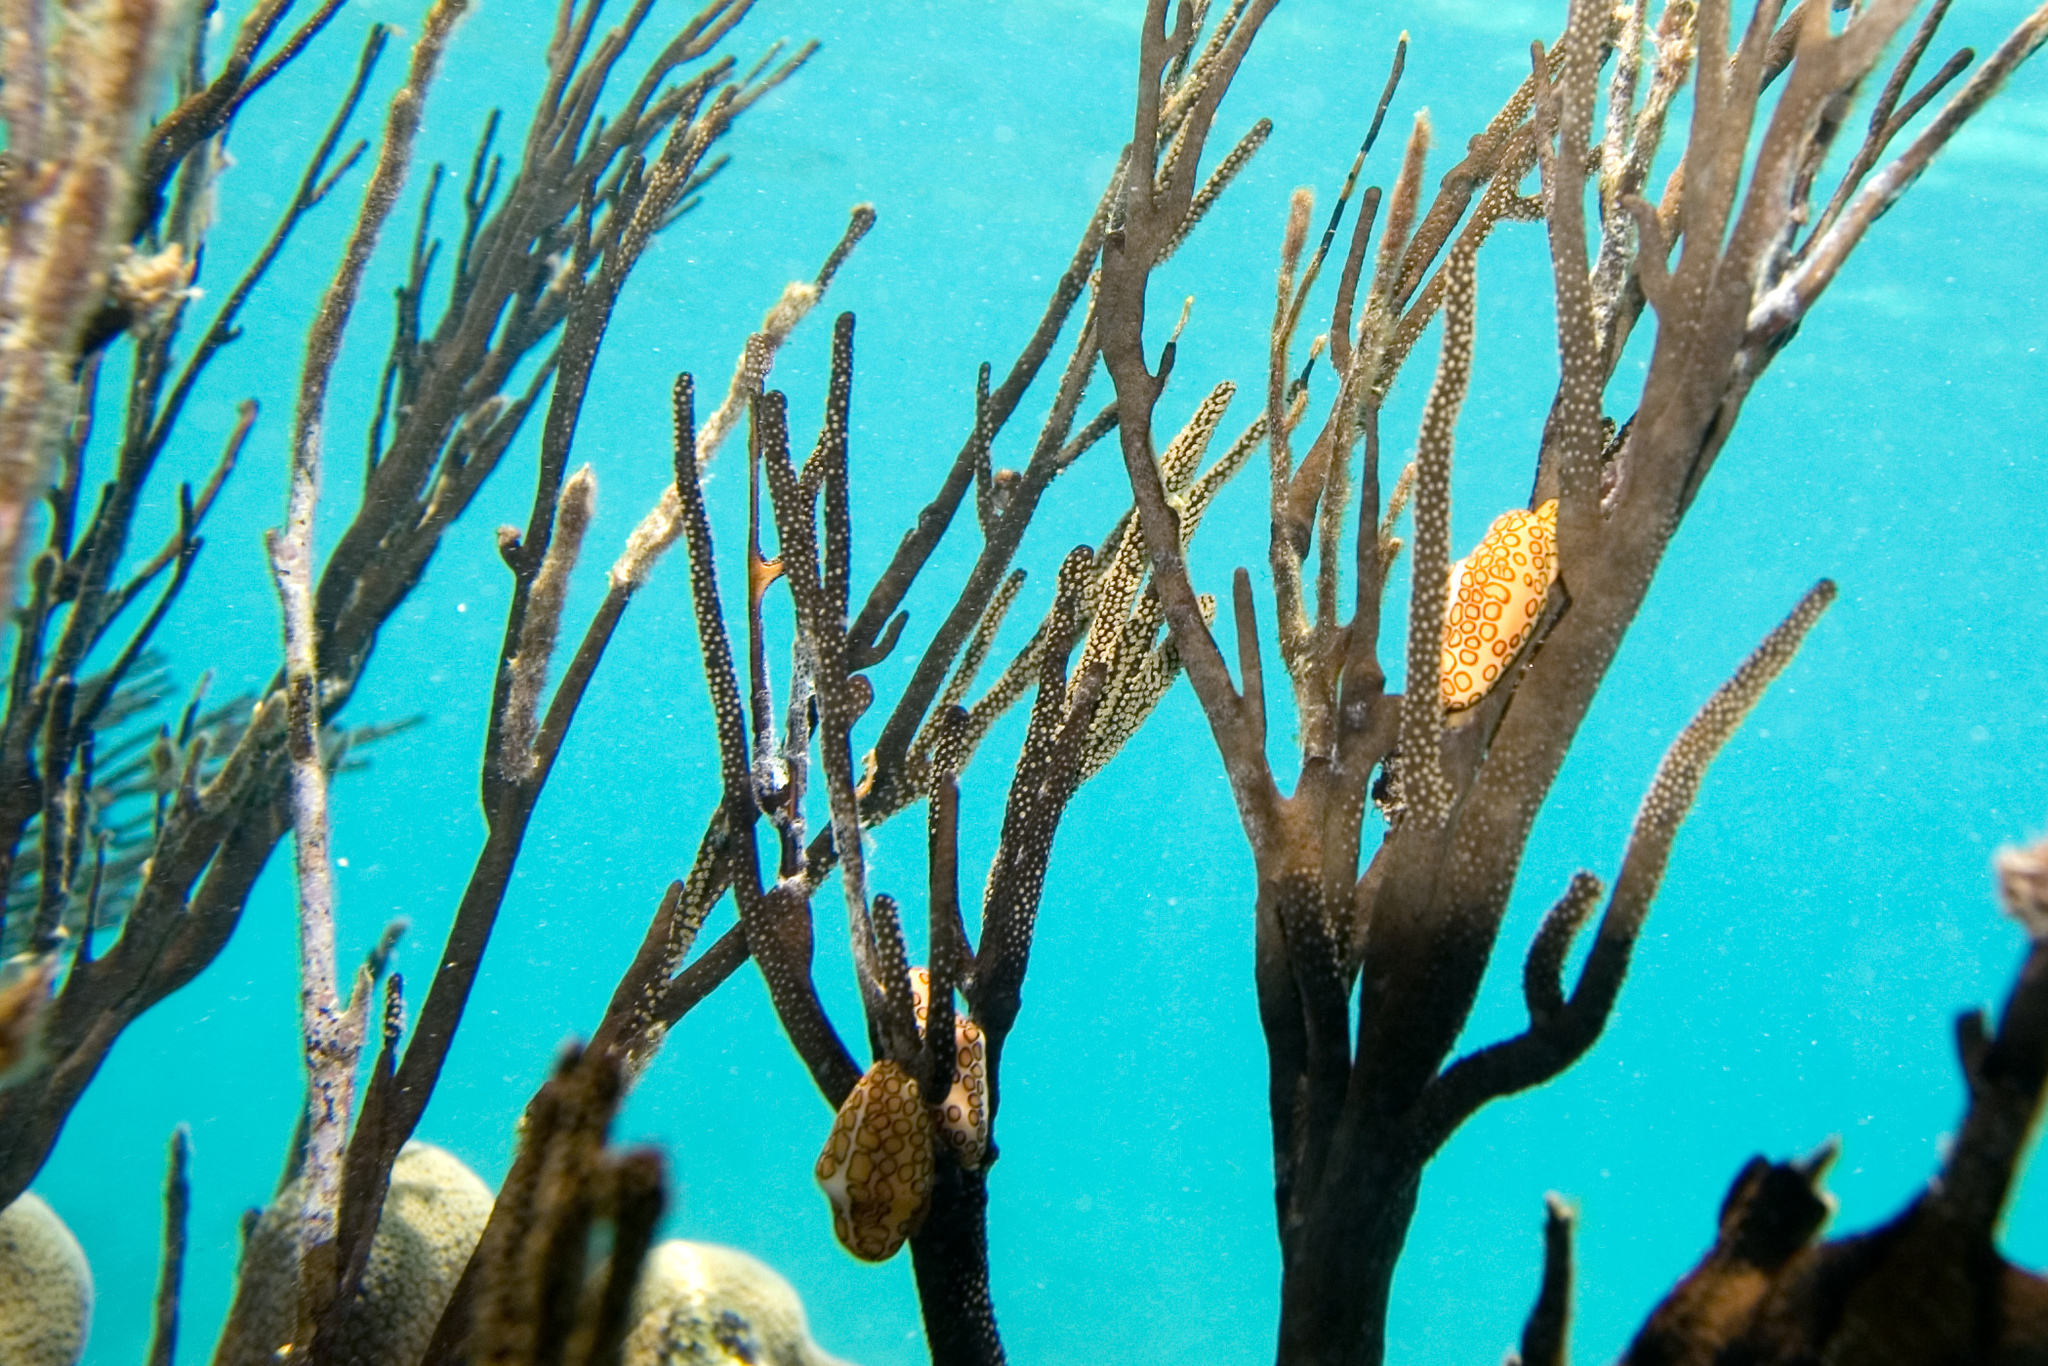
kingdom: Animalia
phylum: Mollusca
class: Gastropoda
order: Littorinimorpha
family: Ovulidae
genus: Cyphoma
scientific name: Cyphoma gibbosum
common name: Flamingo tongue
